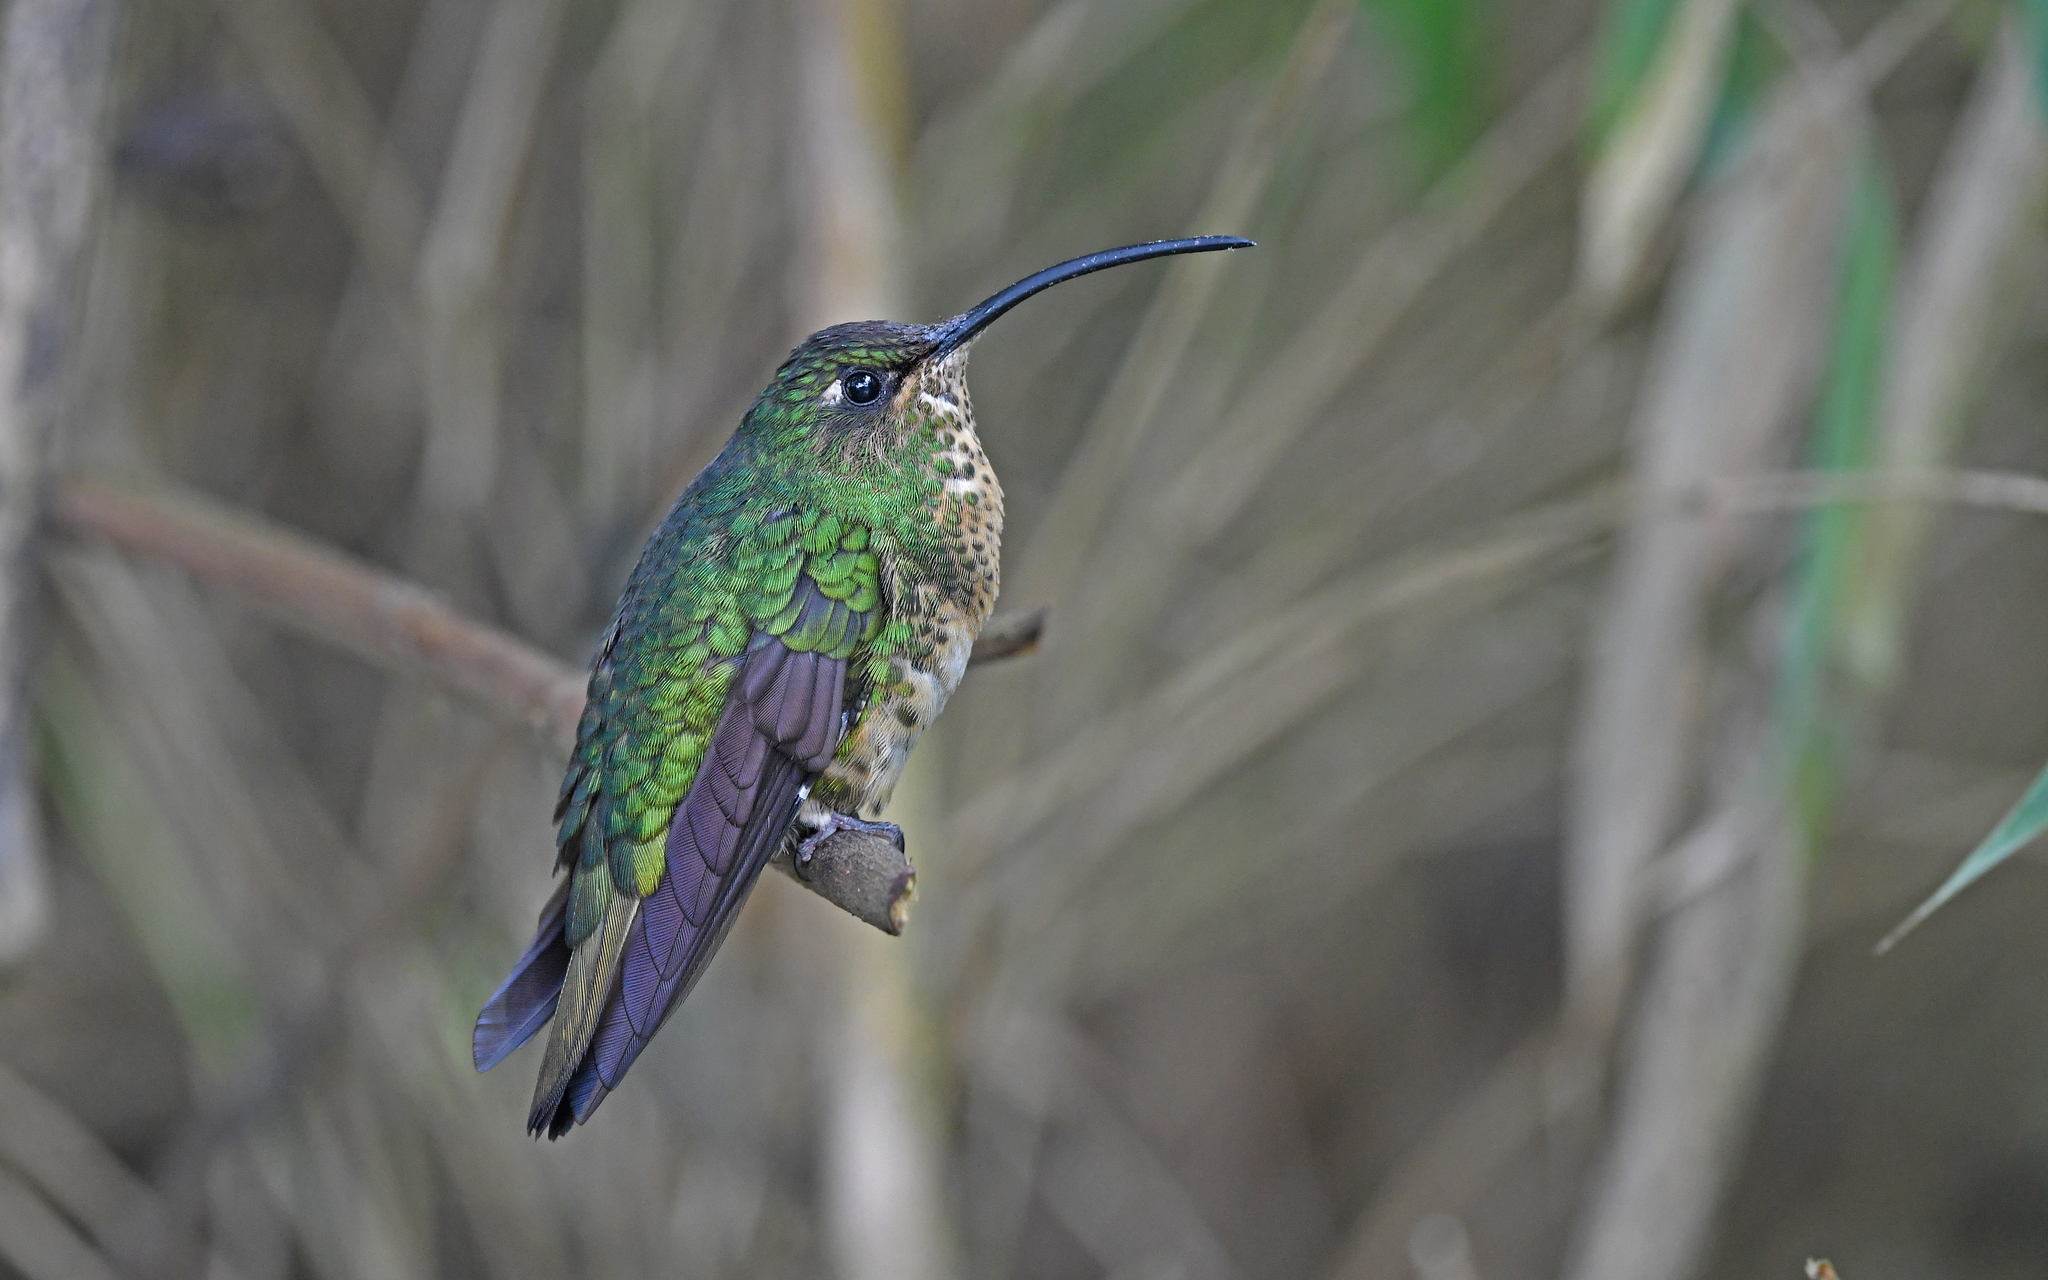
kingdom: Animalia
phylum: Chordata
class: Aves
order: Apodiformes
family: Trochilidae
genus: Lafresnaya
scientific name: Lafresnaya lafresnayi
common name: Mountain velvetbreast
